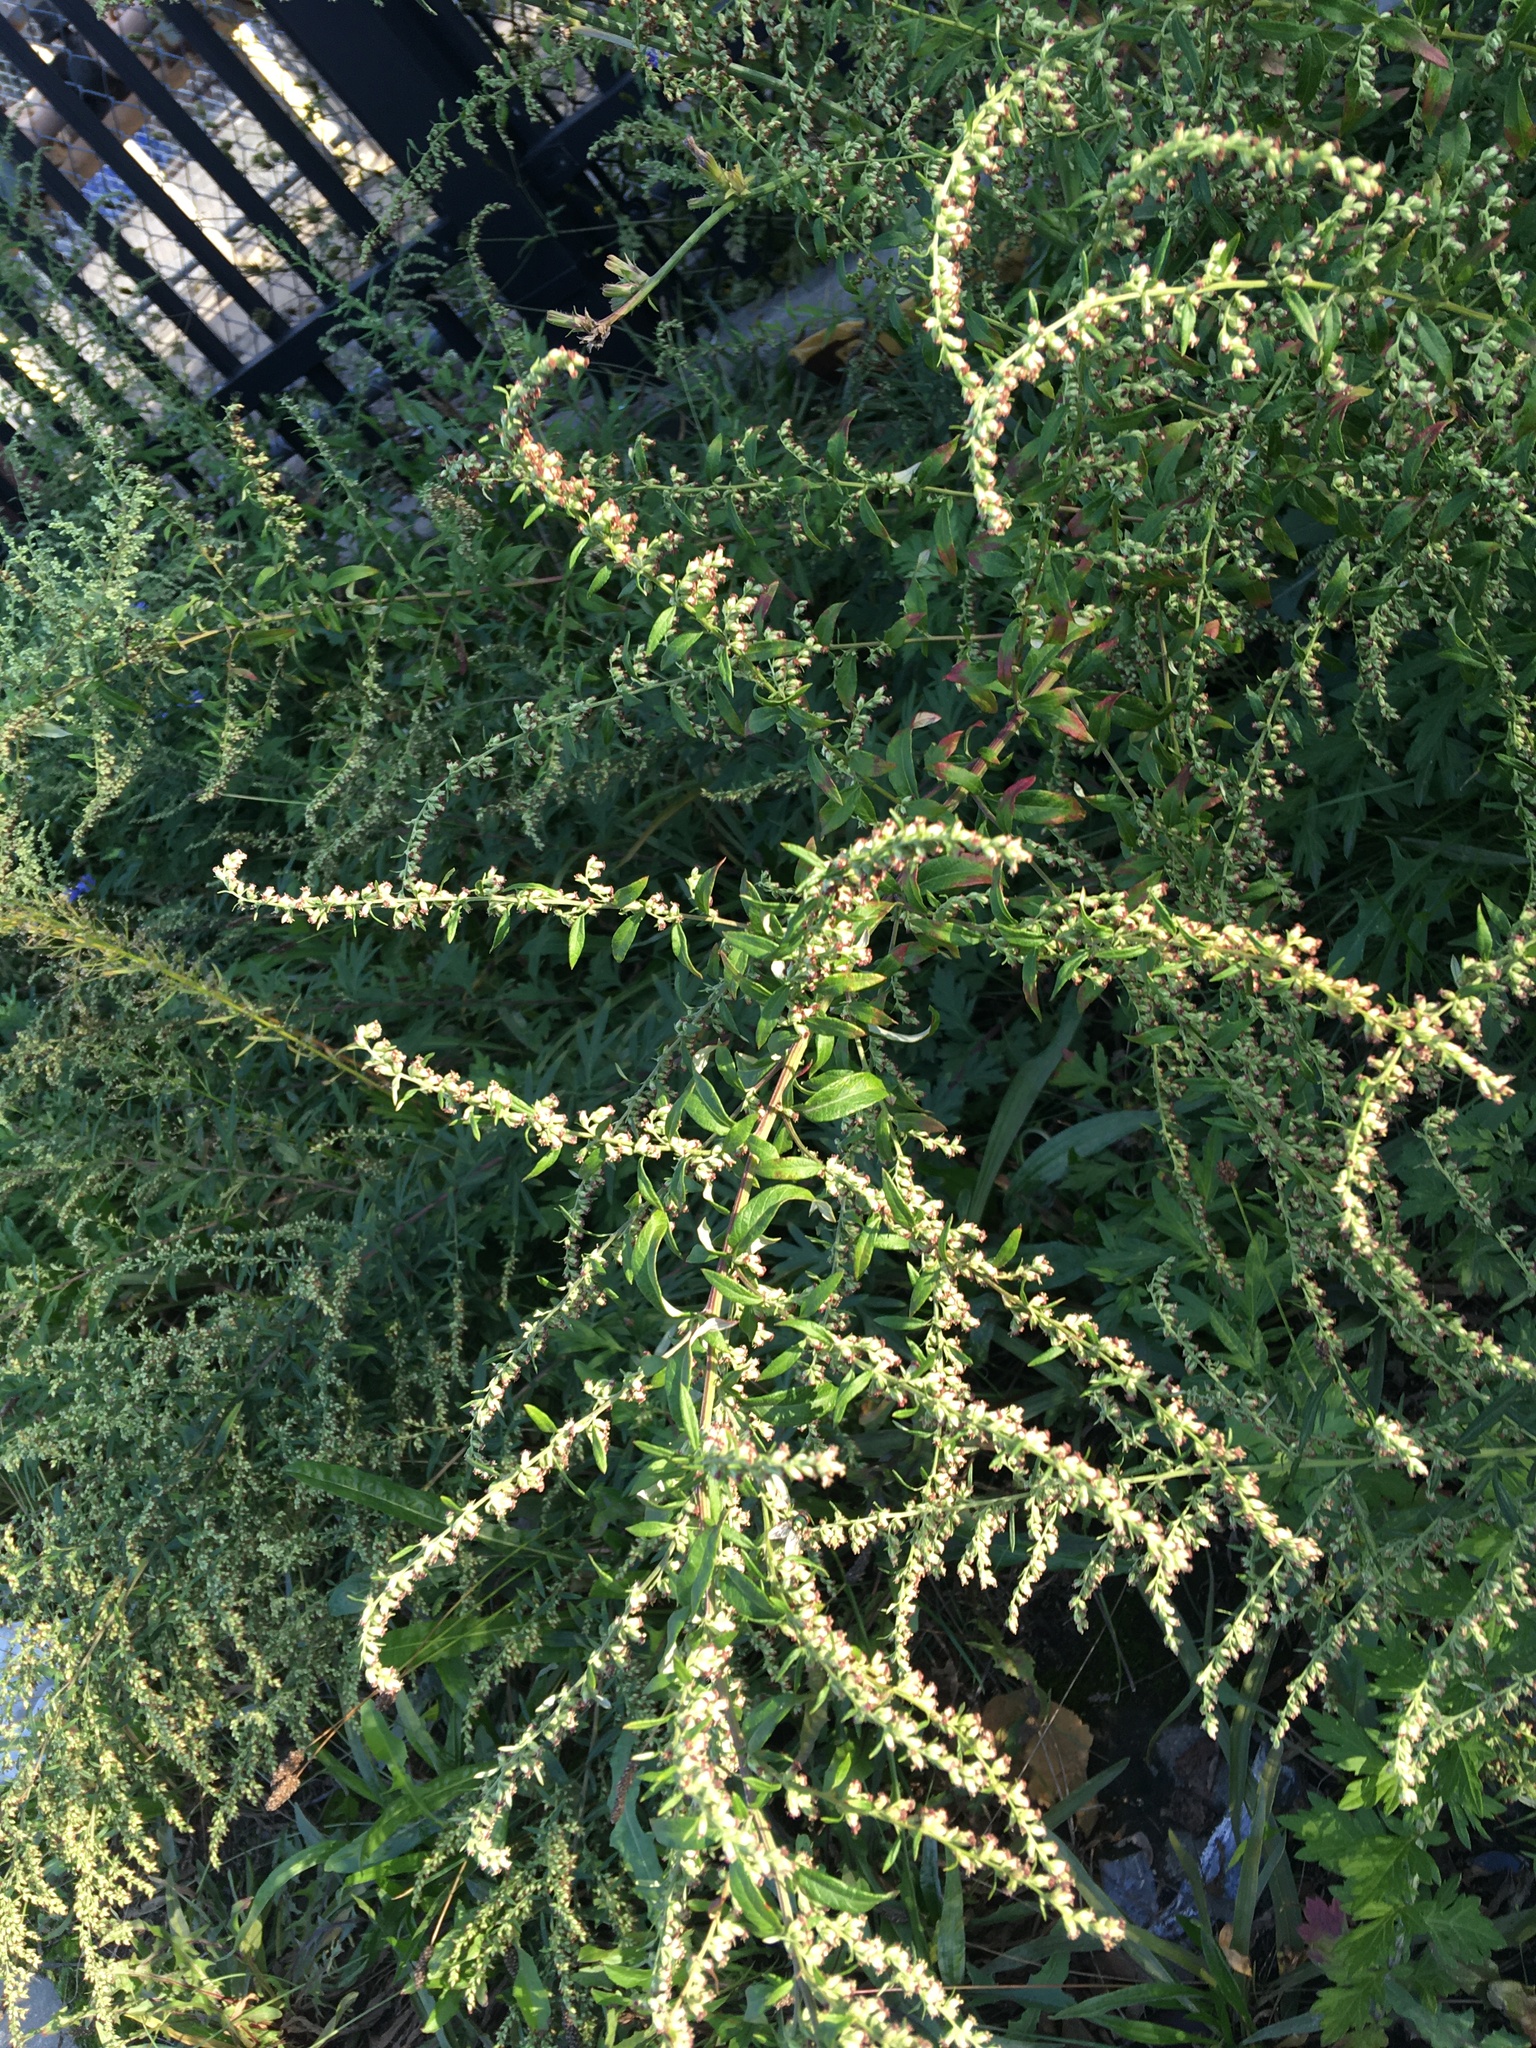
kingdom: Plantae
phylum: Tracheophyta
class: Magnoliopsida
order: Asterales
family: Asteraceae
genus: Artemisia
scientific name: Artemisia vulgaris
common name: Mugwort
